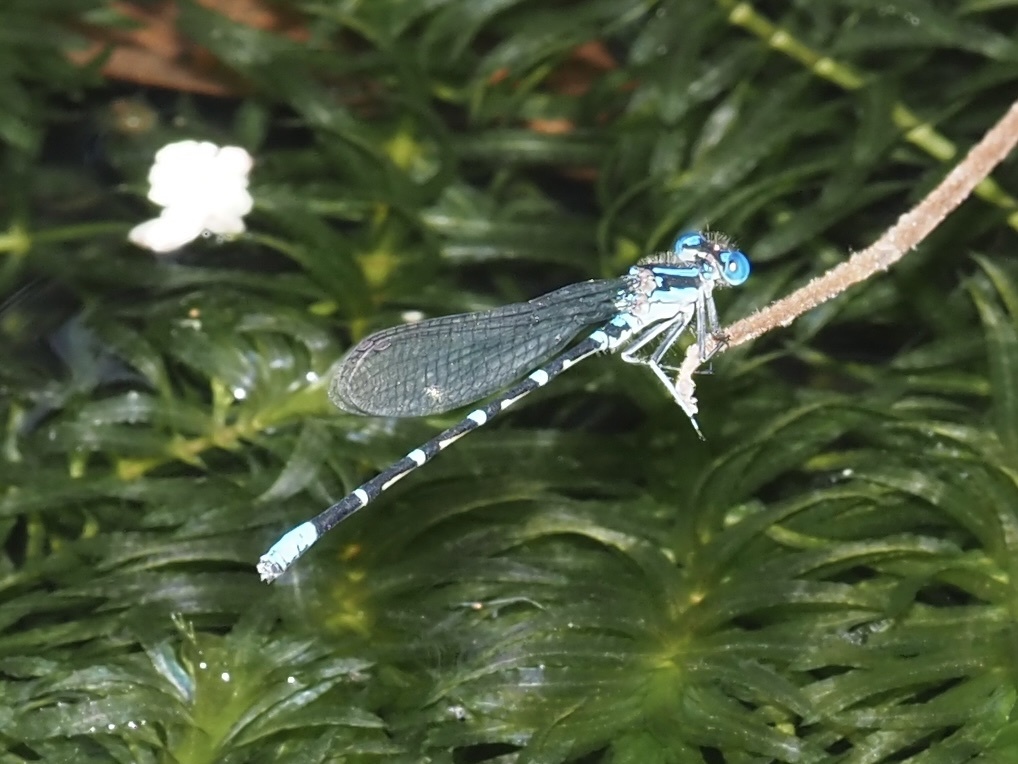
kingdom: Animalia
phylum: Arthropoda
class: Insecta
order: Odonata
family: Coenagrionidae
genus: Argia
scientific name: Argia sedula
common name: Blue-ringed dancer
